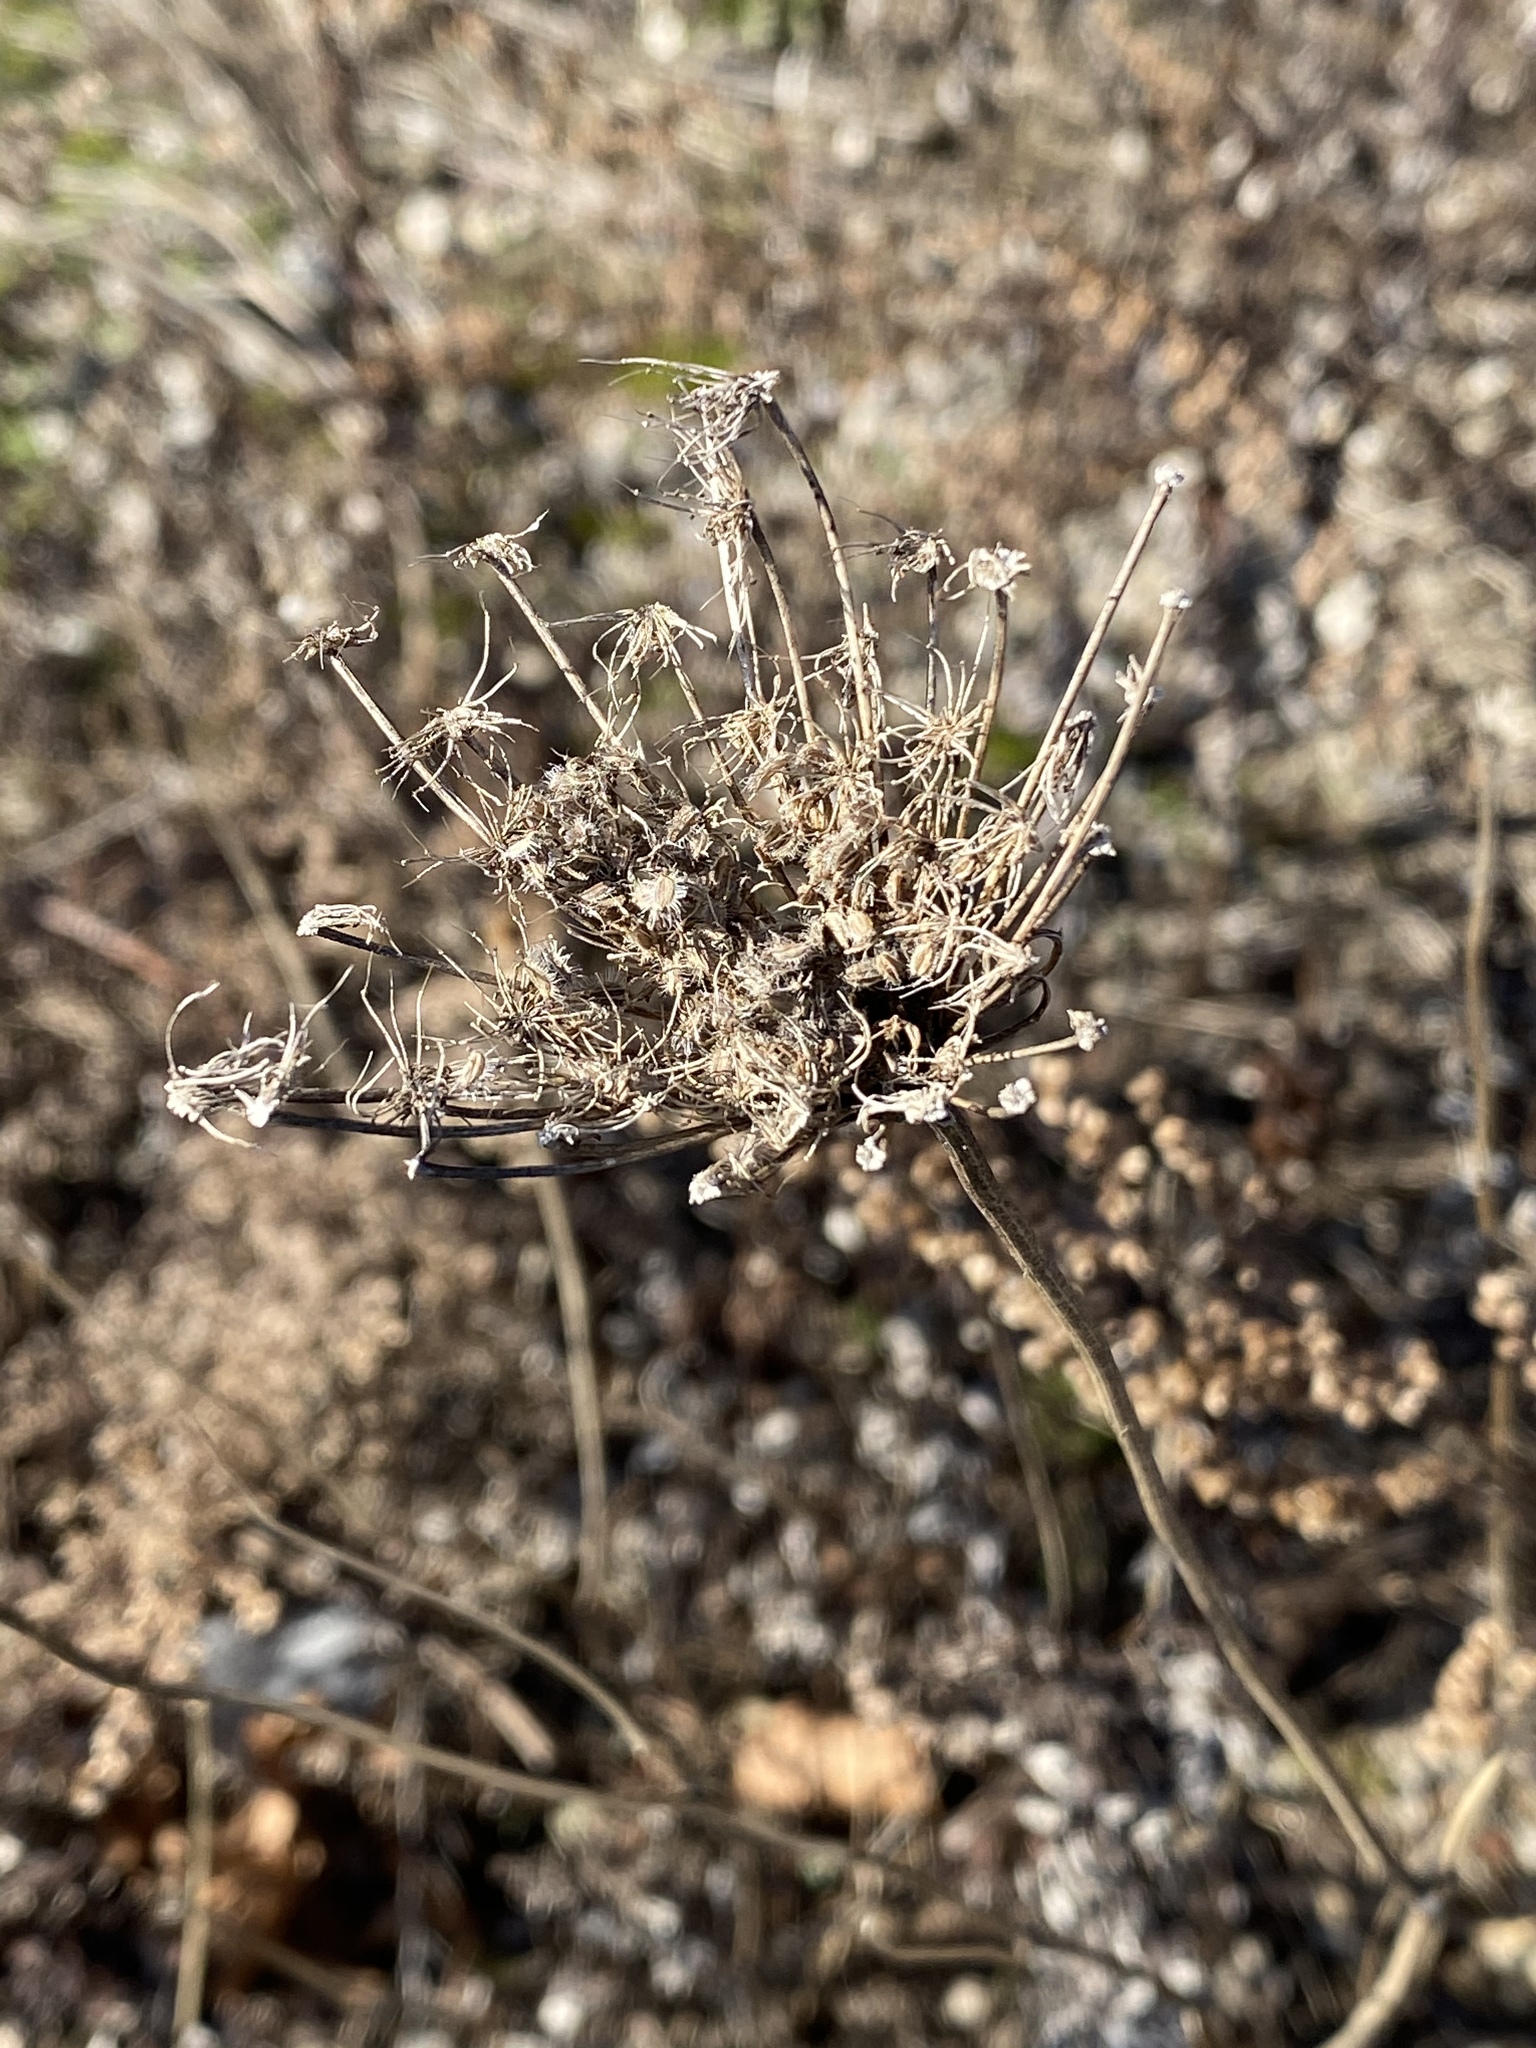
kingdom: Plantae
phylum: Tracheophyta
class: Magnoliopsida
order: Apiales
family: Apiaceae
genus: Daucus
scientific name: Daucus carota
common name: Wild carrot
